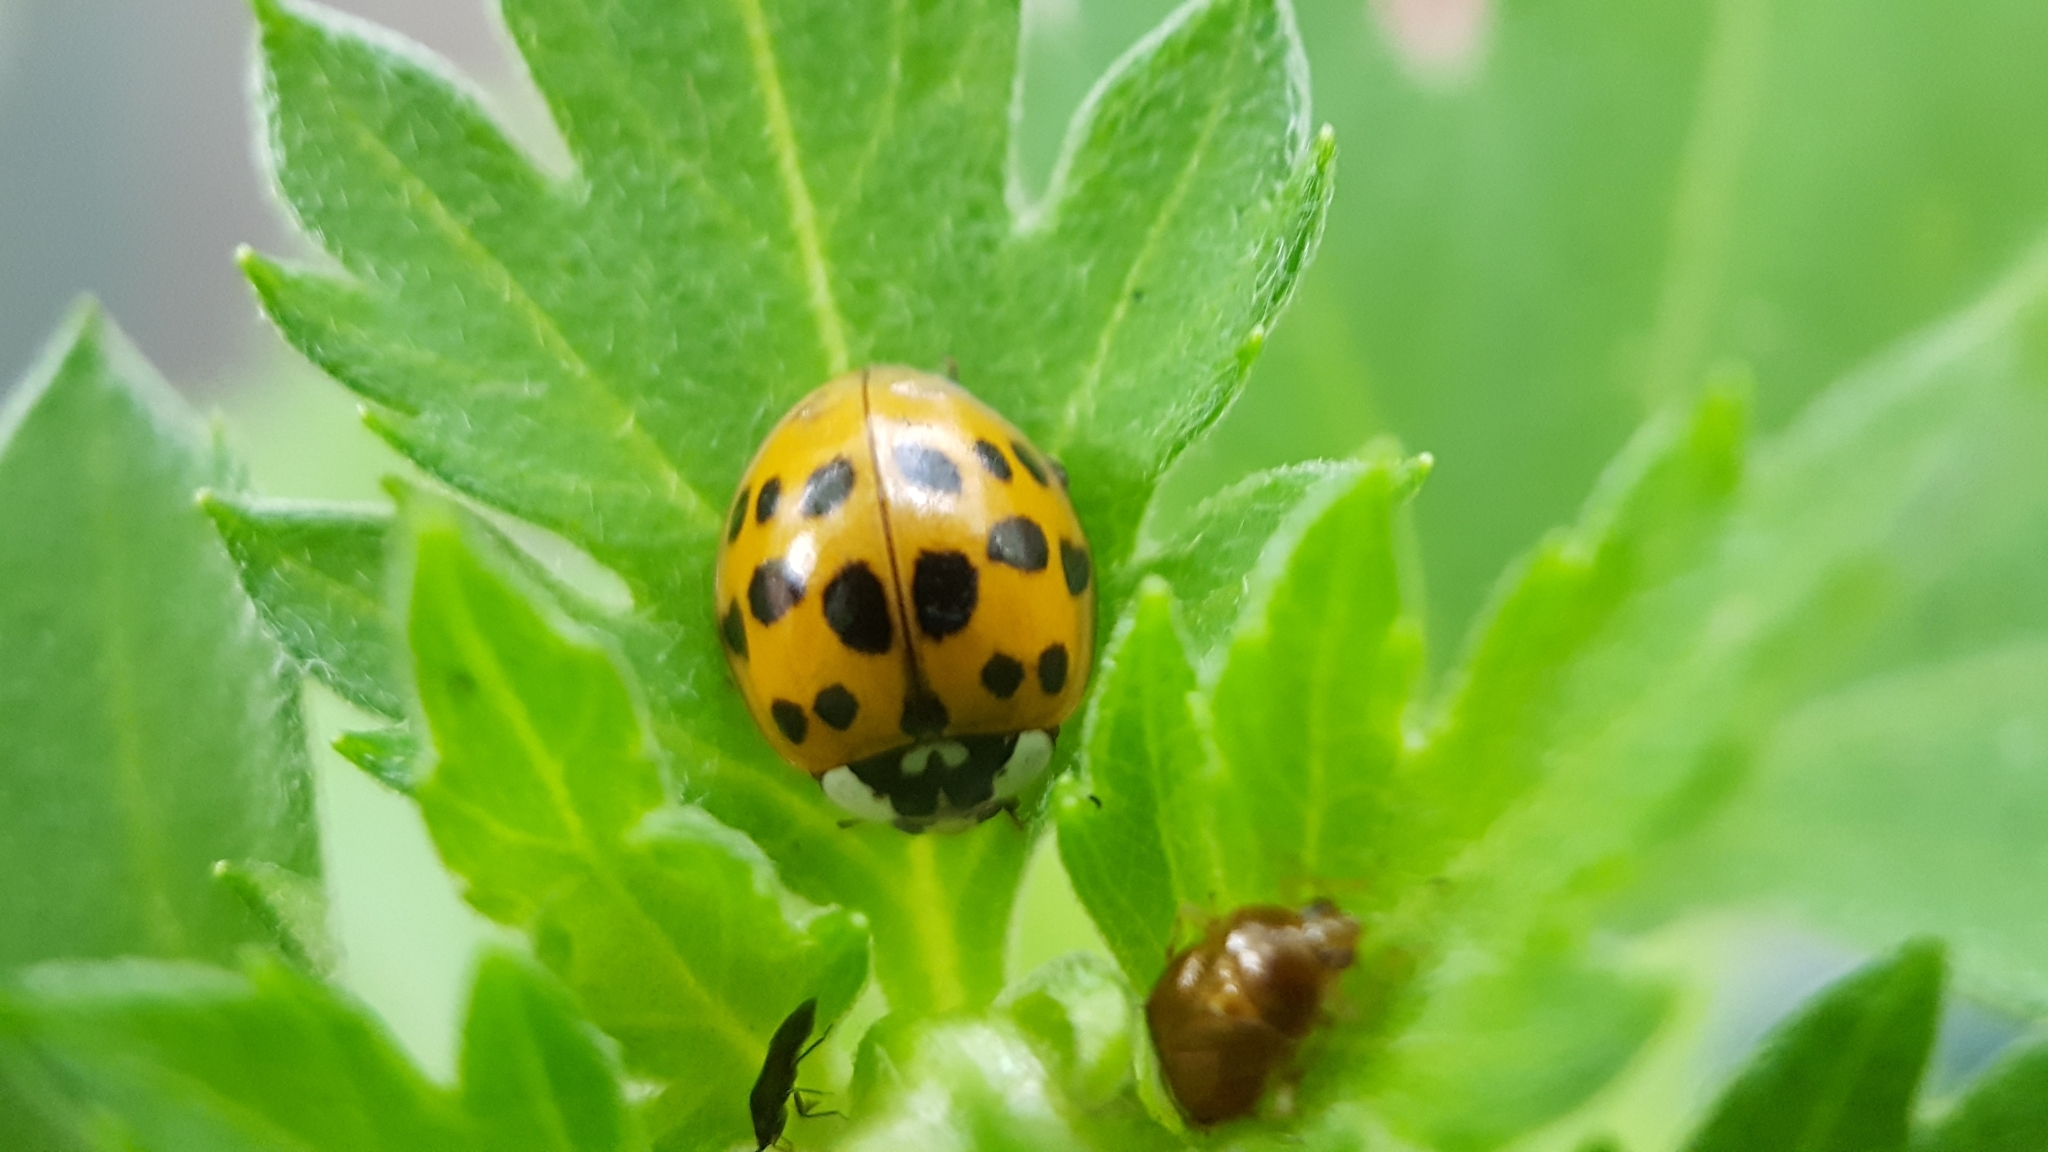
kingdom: Animalia
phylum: Arthropoda
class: Insecta
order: Coleoptera
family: Coccinellidae
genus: Harmonia
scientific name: Harmonia axyridis
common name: Harlequin ladybird
